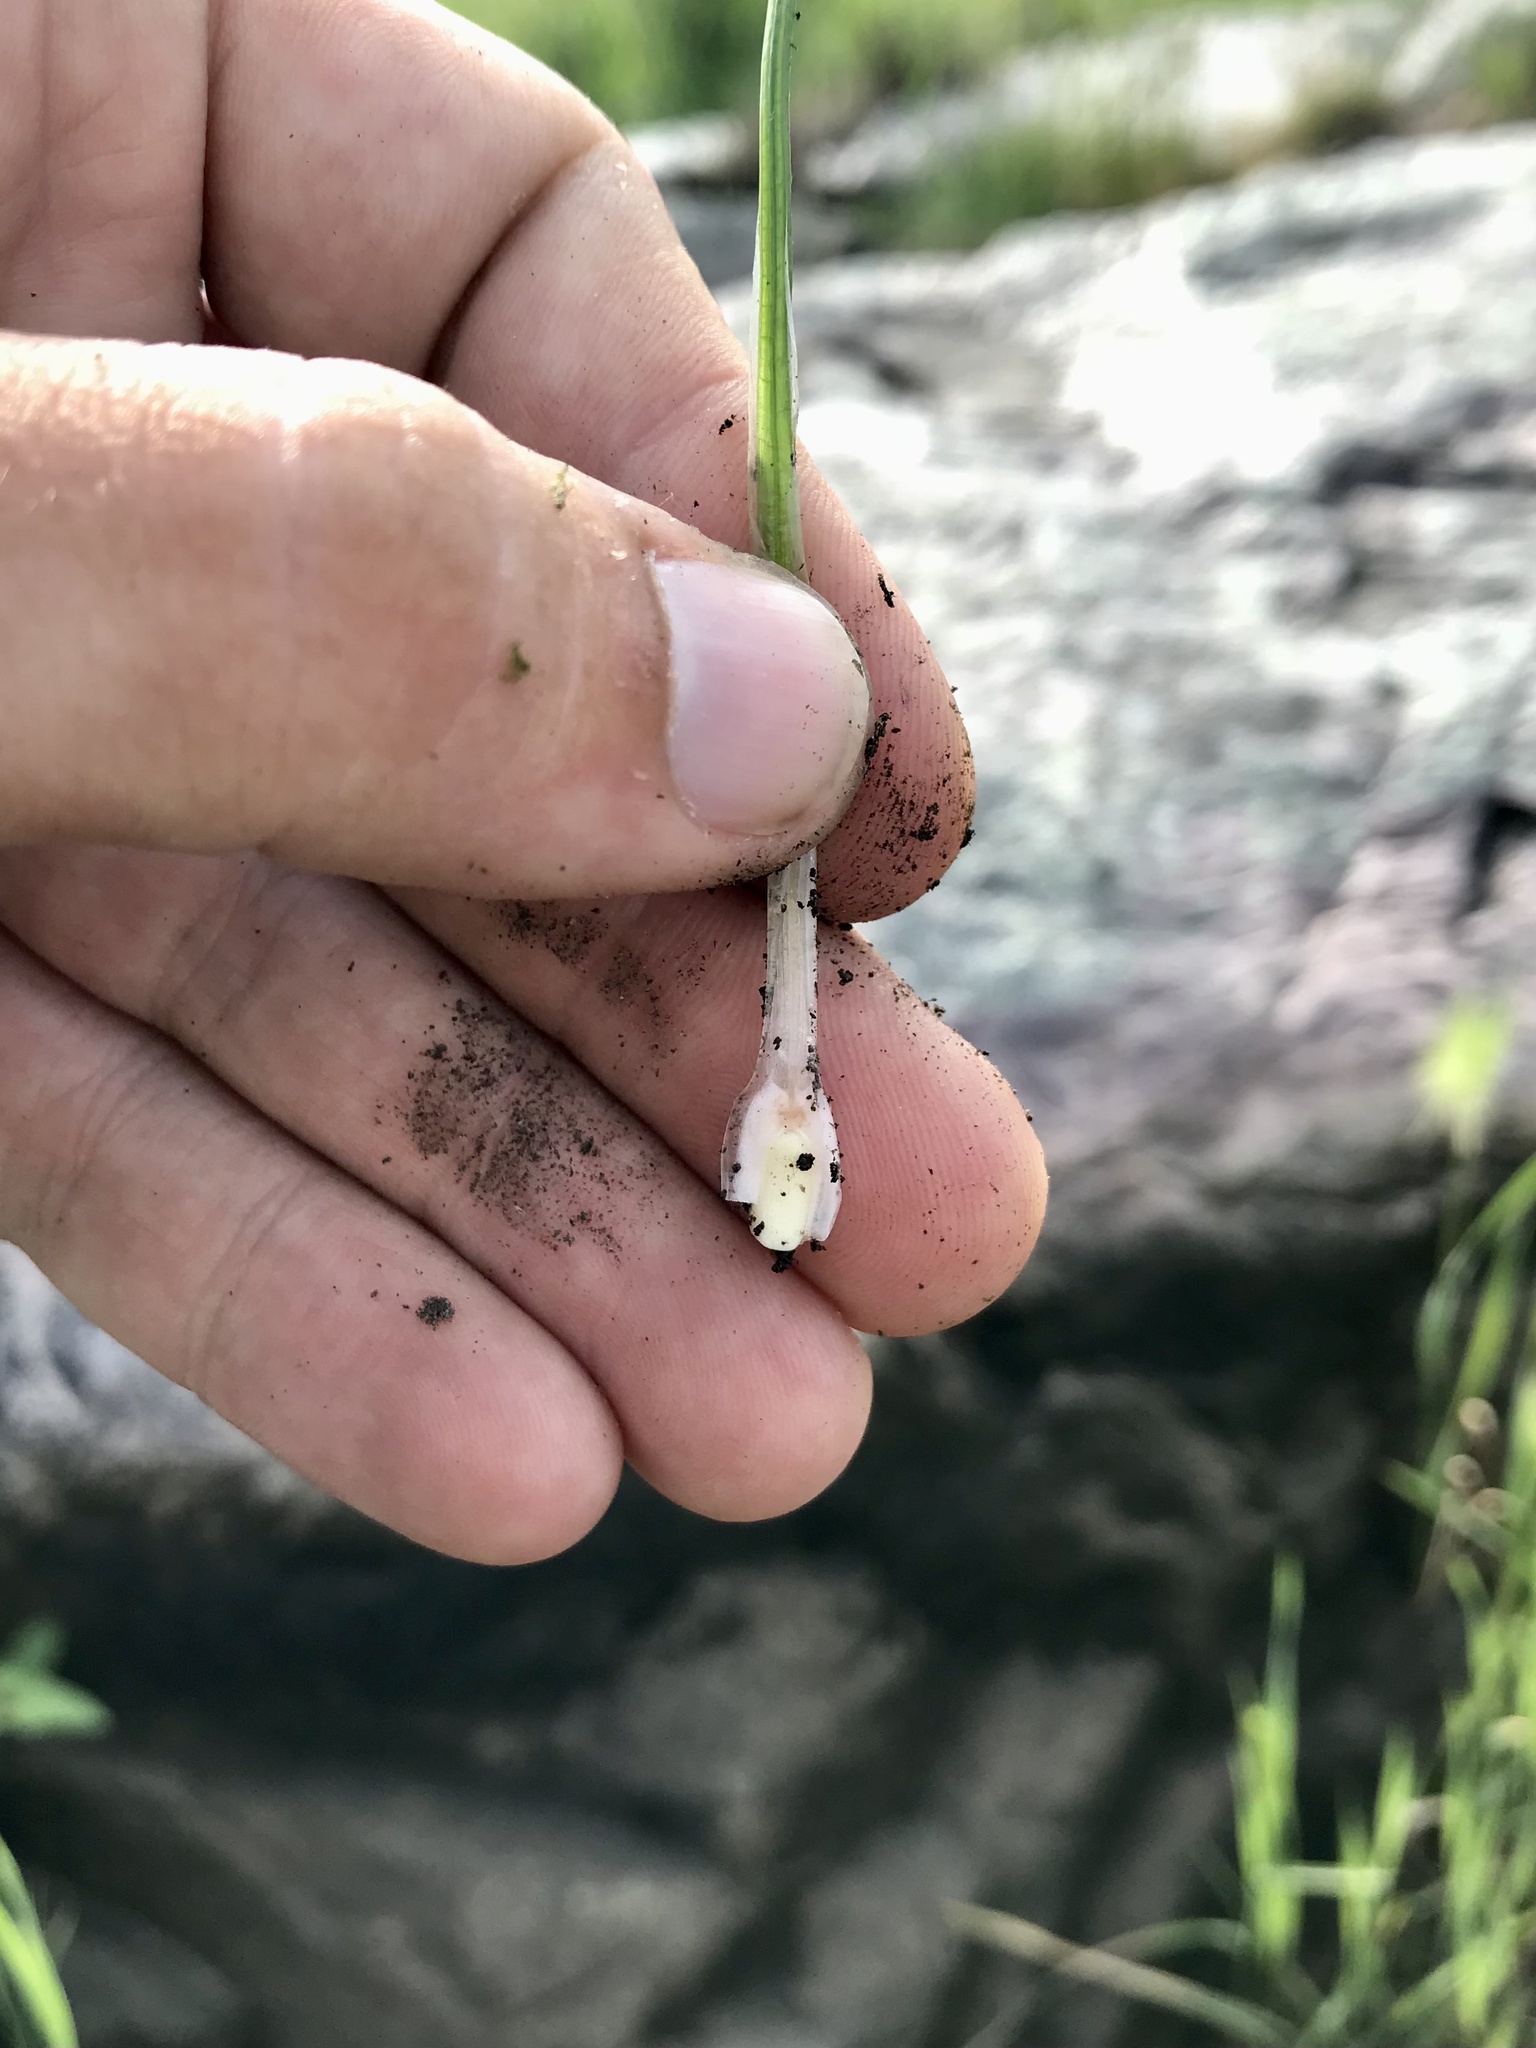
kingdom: Plantae
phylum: Tracheophyta
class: Lycopodiopsida
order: Isoetales
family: Isoetaceae
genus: Isoetes
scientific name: Isoetes melanopoda
